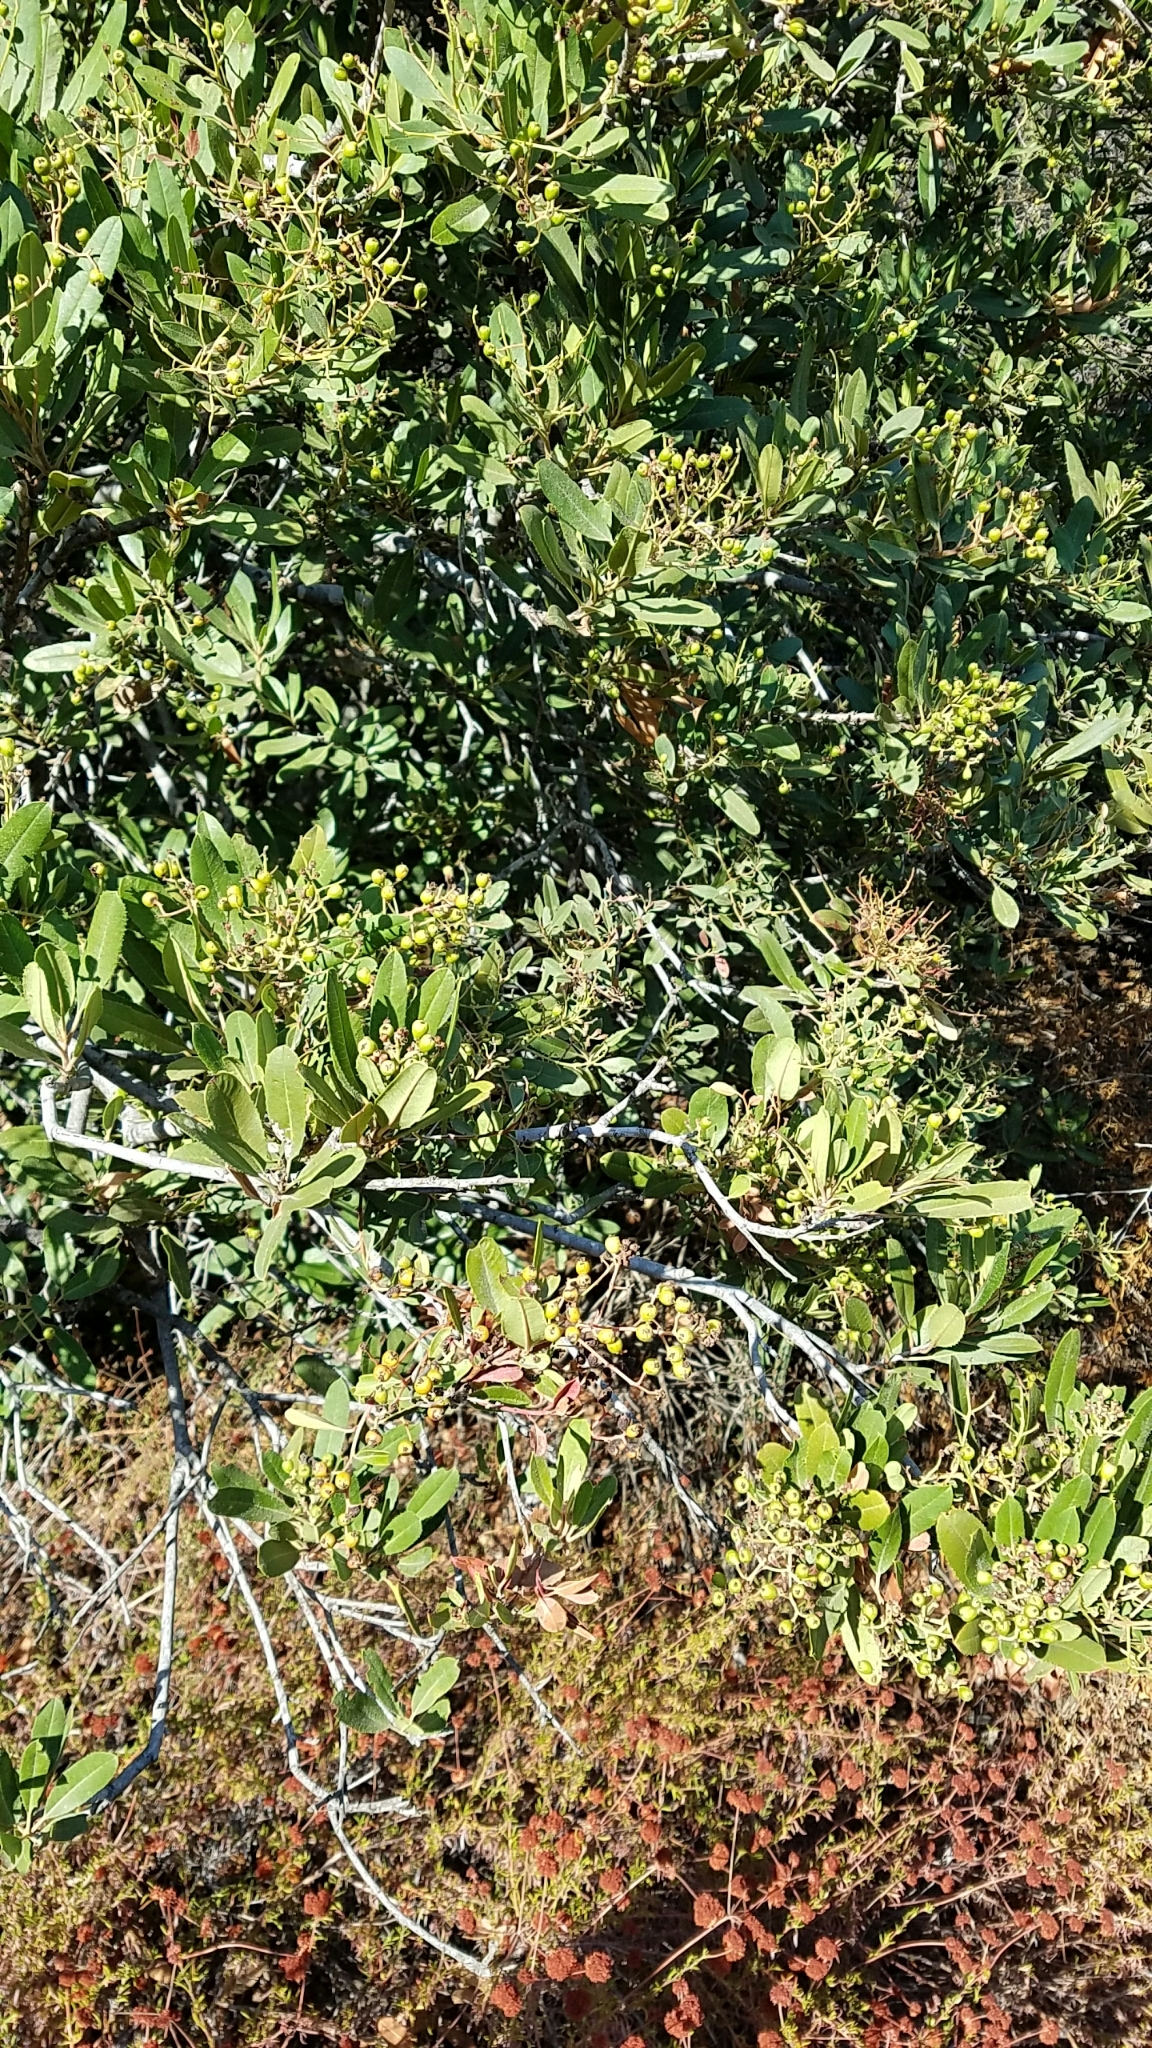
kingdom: Plantae
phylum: Tracheophyta
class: Magnoliopsida
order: Rosales
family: Rosaceae
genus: Heteromeles
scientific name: Heteromeles arbutifolia
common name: California-holly
